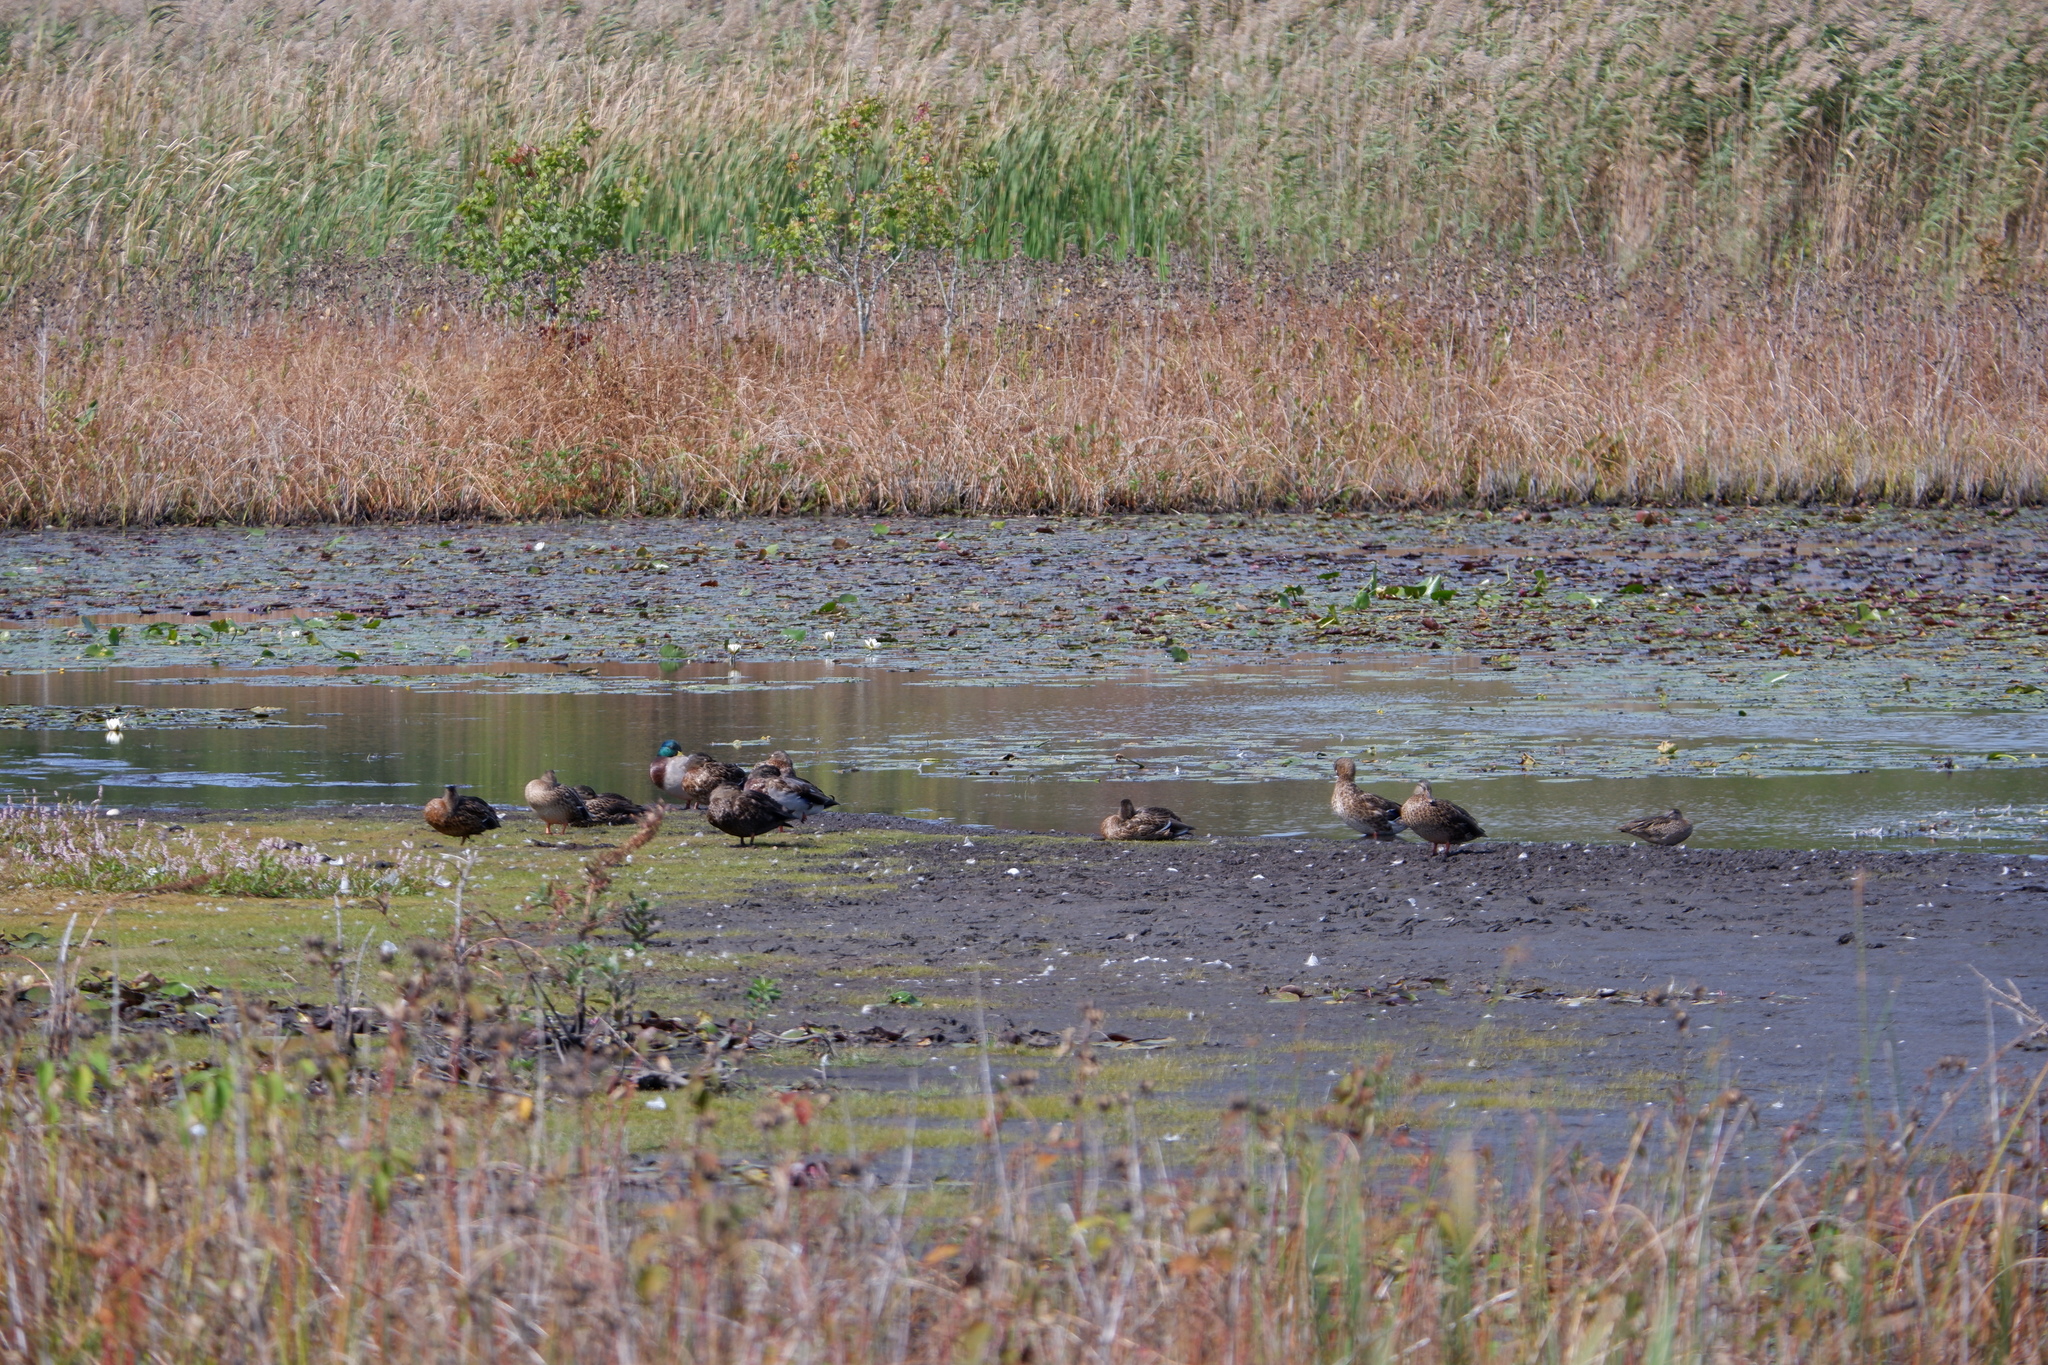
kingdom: Animalia
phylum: Chordata
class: Aves
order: Anseriformes
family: Anatidae
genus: Anas
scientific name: Anas platyrhynchos
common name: Mallard
